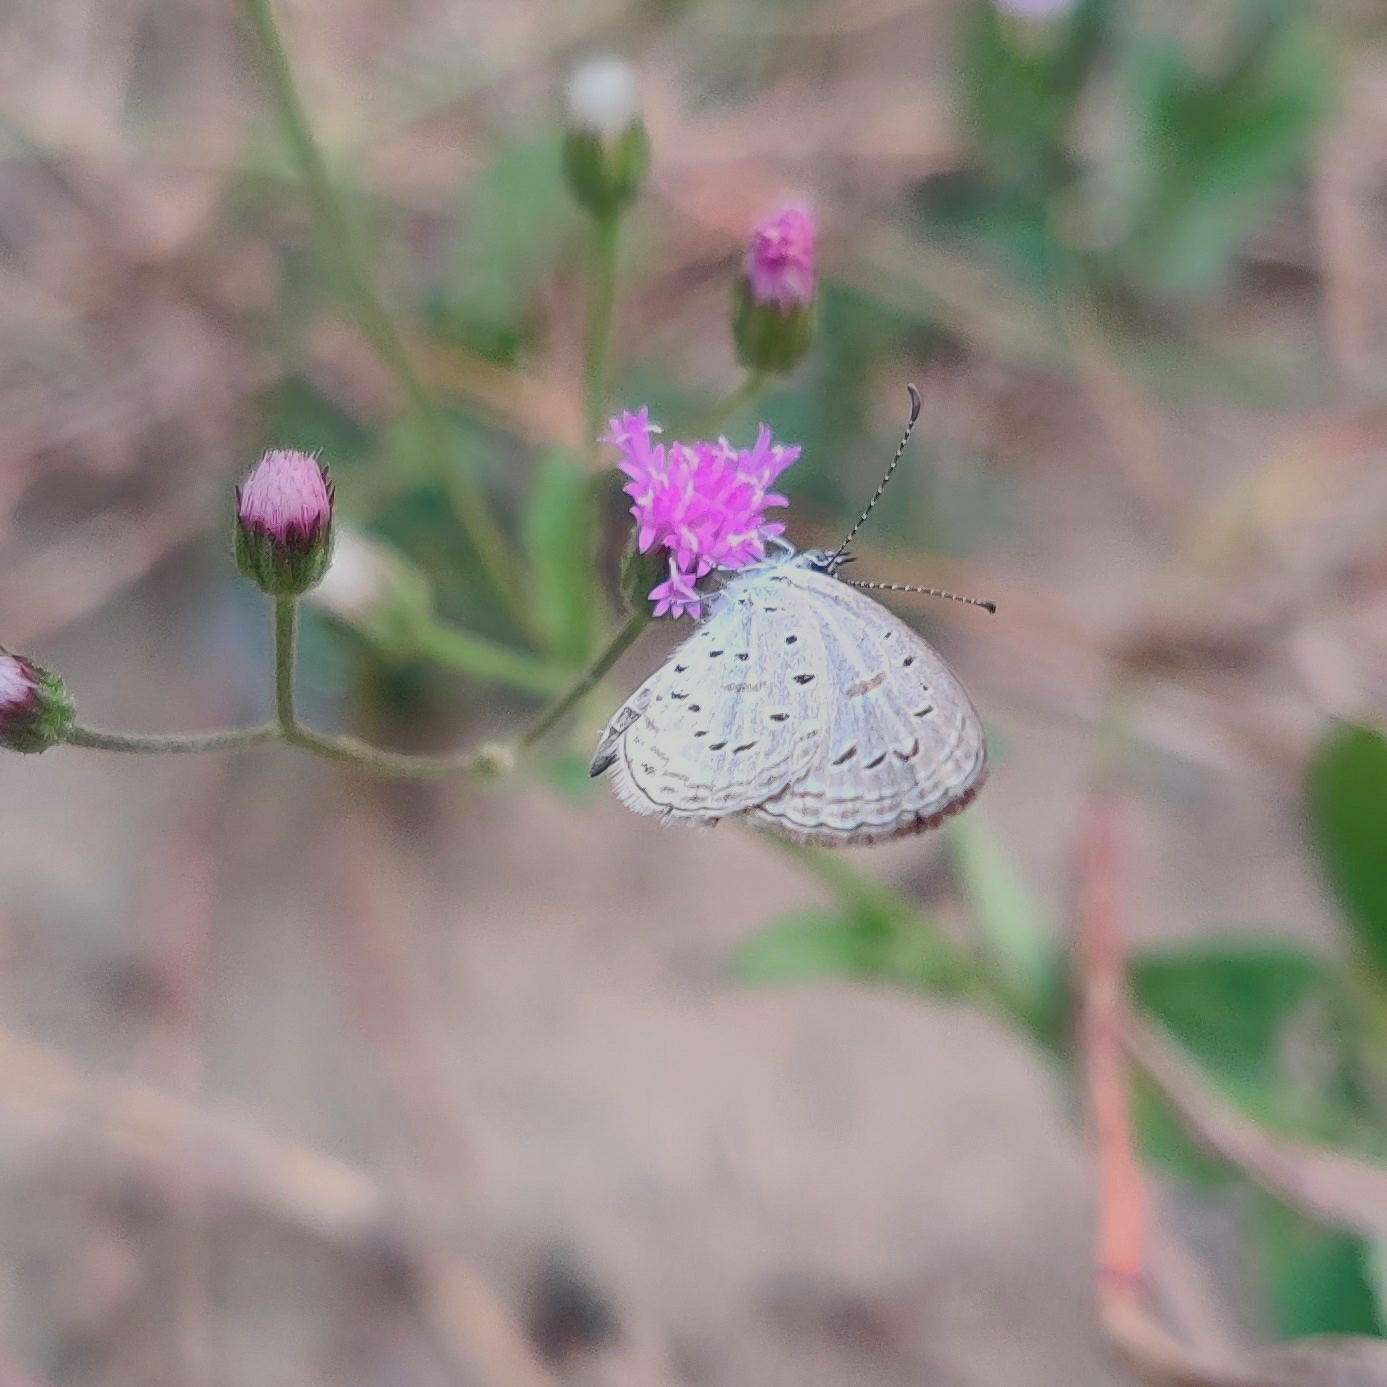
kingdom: Animalia
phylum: Arthropoda
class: Insecta
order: Lepidoptera
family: Lycaenidae
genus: Zizula
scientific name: Zizula hylax
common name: Gaika blue
